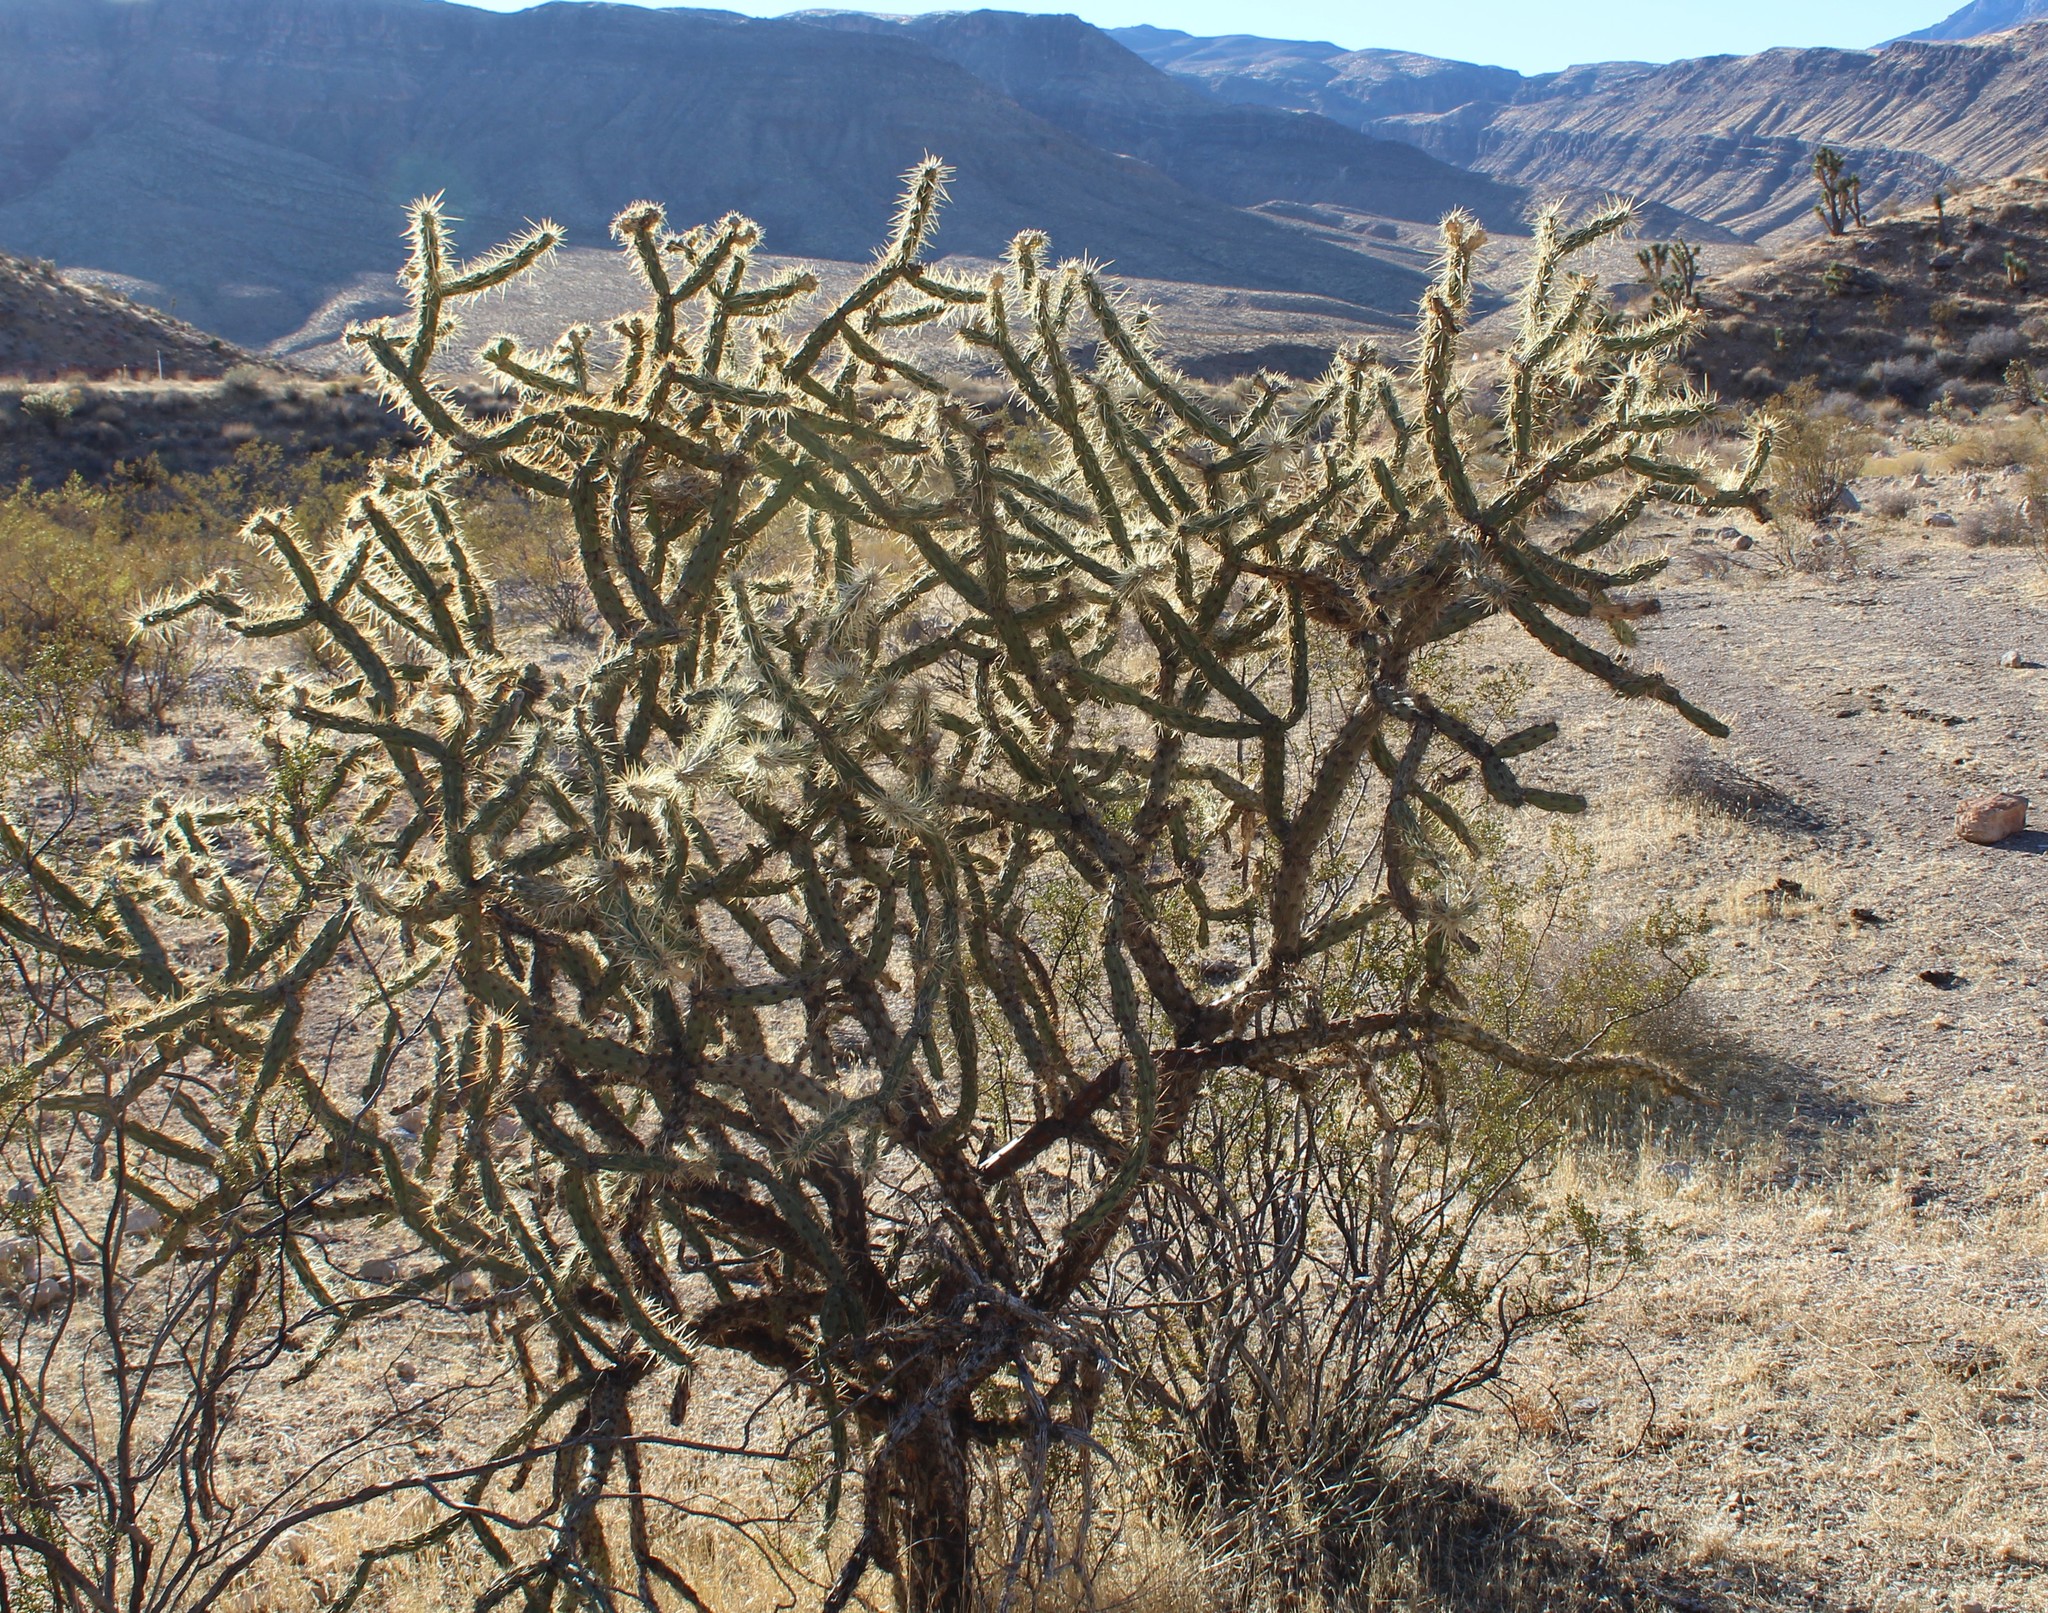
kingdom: Plantae
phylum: Tracheophyta
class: Magnoliopsida
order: Caryophyllales
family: Cactaceae
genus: Cylindropuntia
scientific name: Cylindropuntia acanthocarpa
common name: Buckhorn cholla
